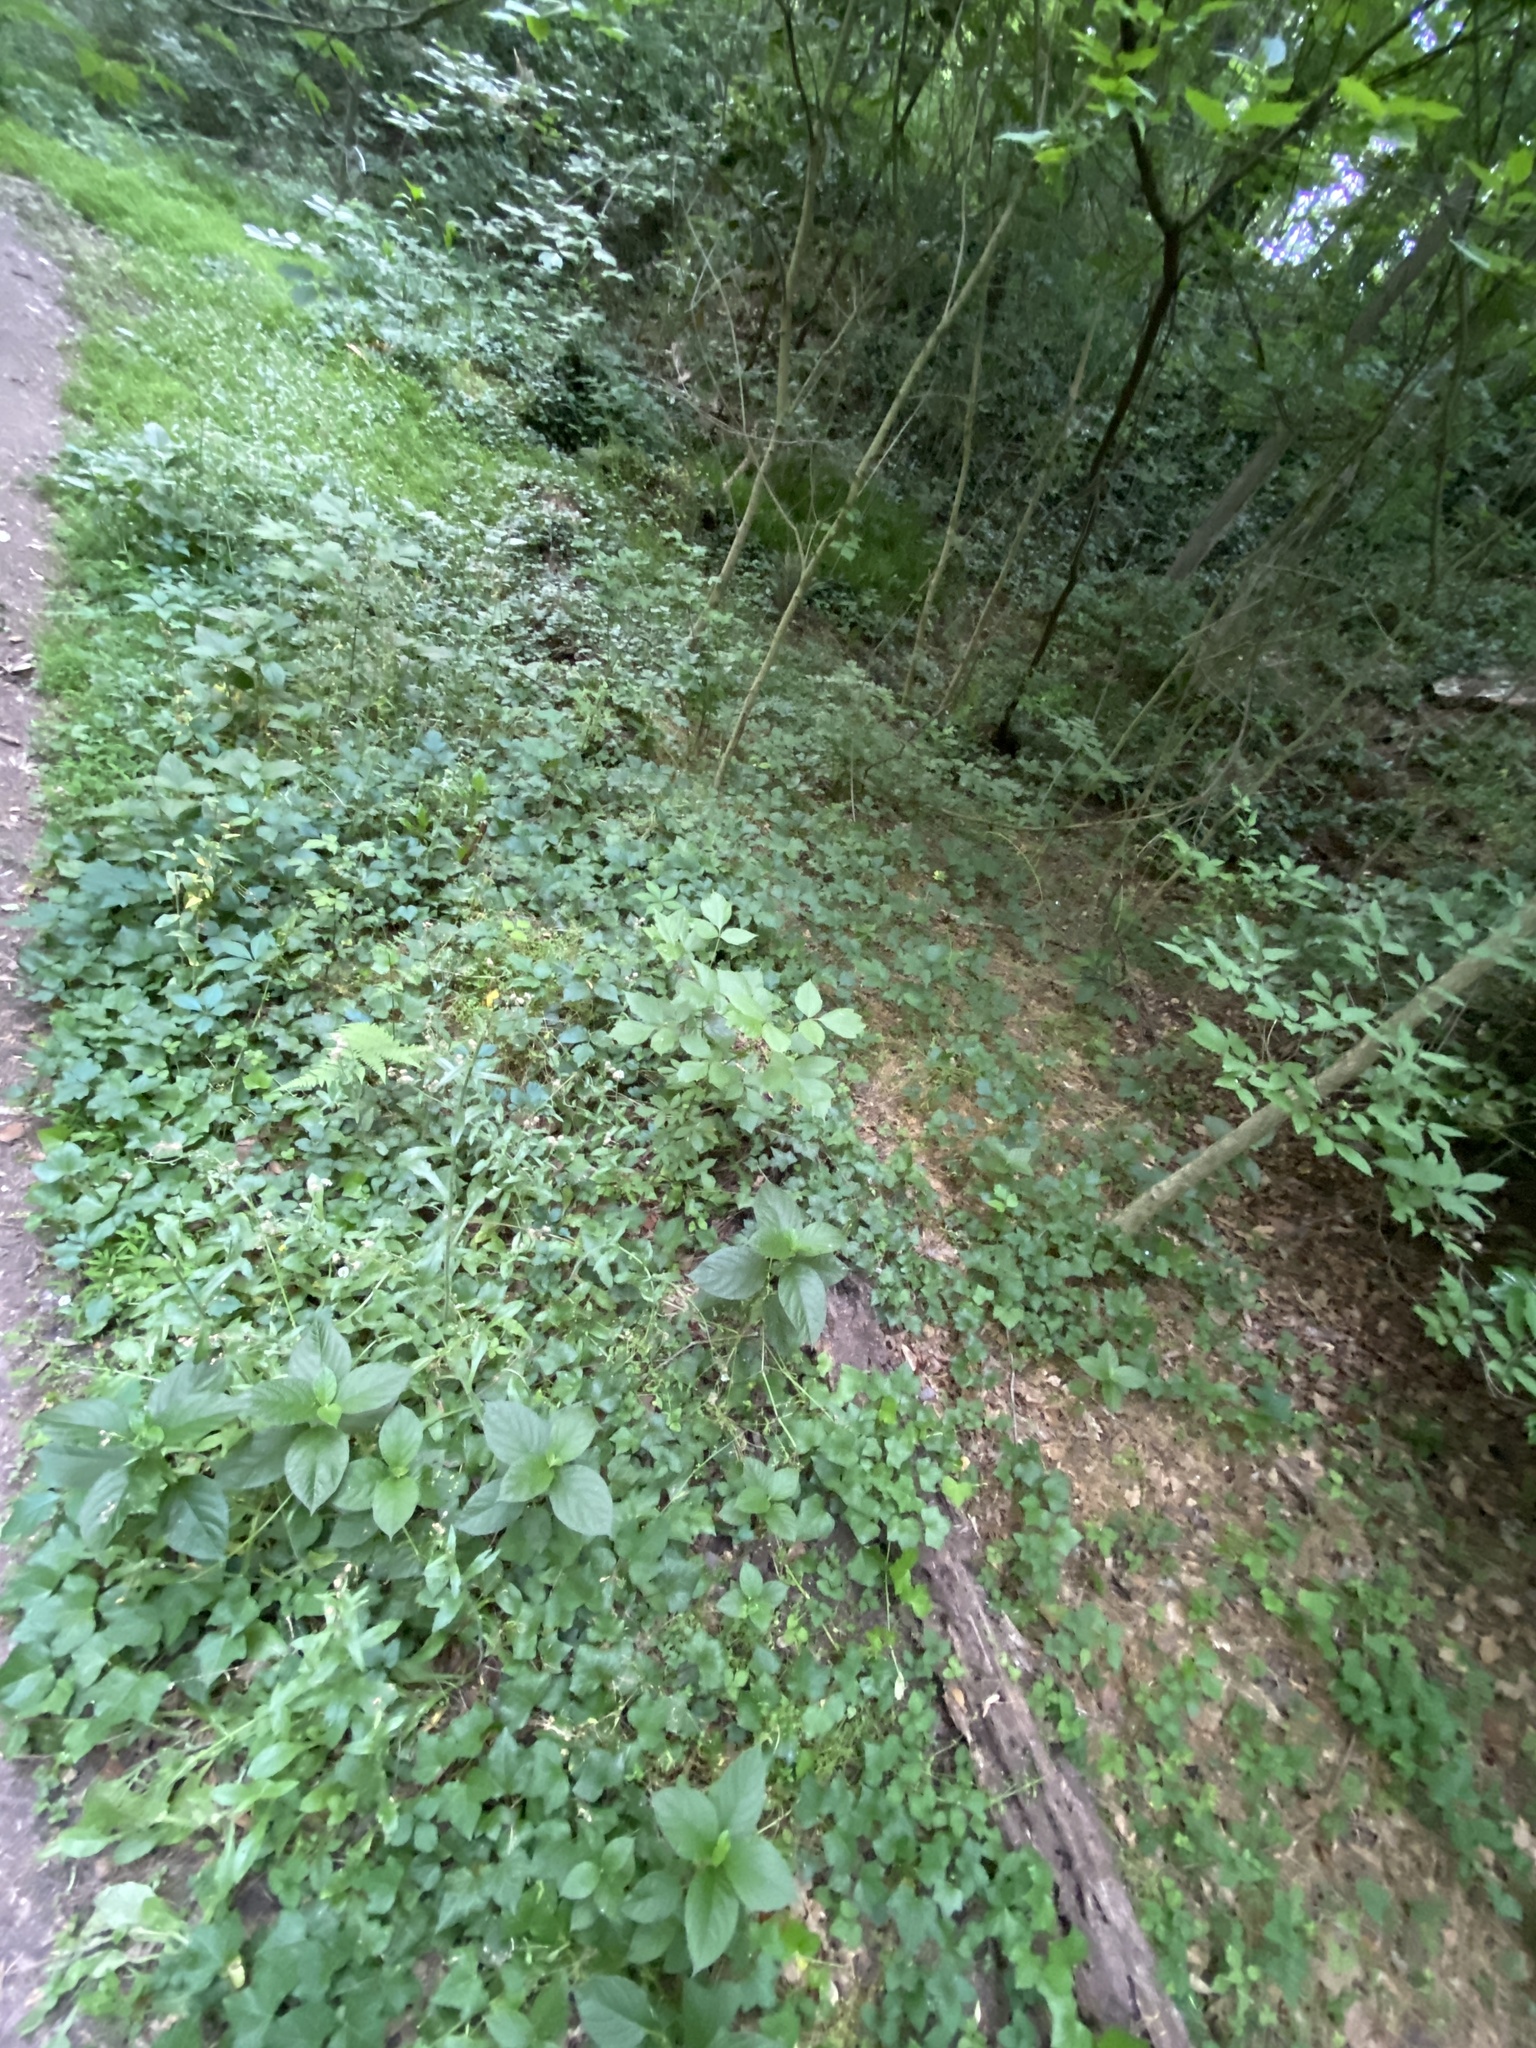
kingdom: Plantae
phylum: Tracheophyta
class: Magnoliopsida
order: Caryophyllales
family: Amaranthaceae
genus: Achyranthes
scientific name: Achyranthes bidentata
